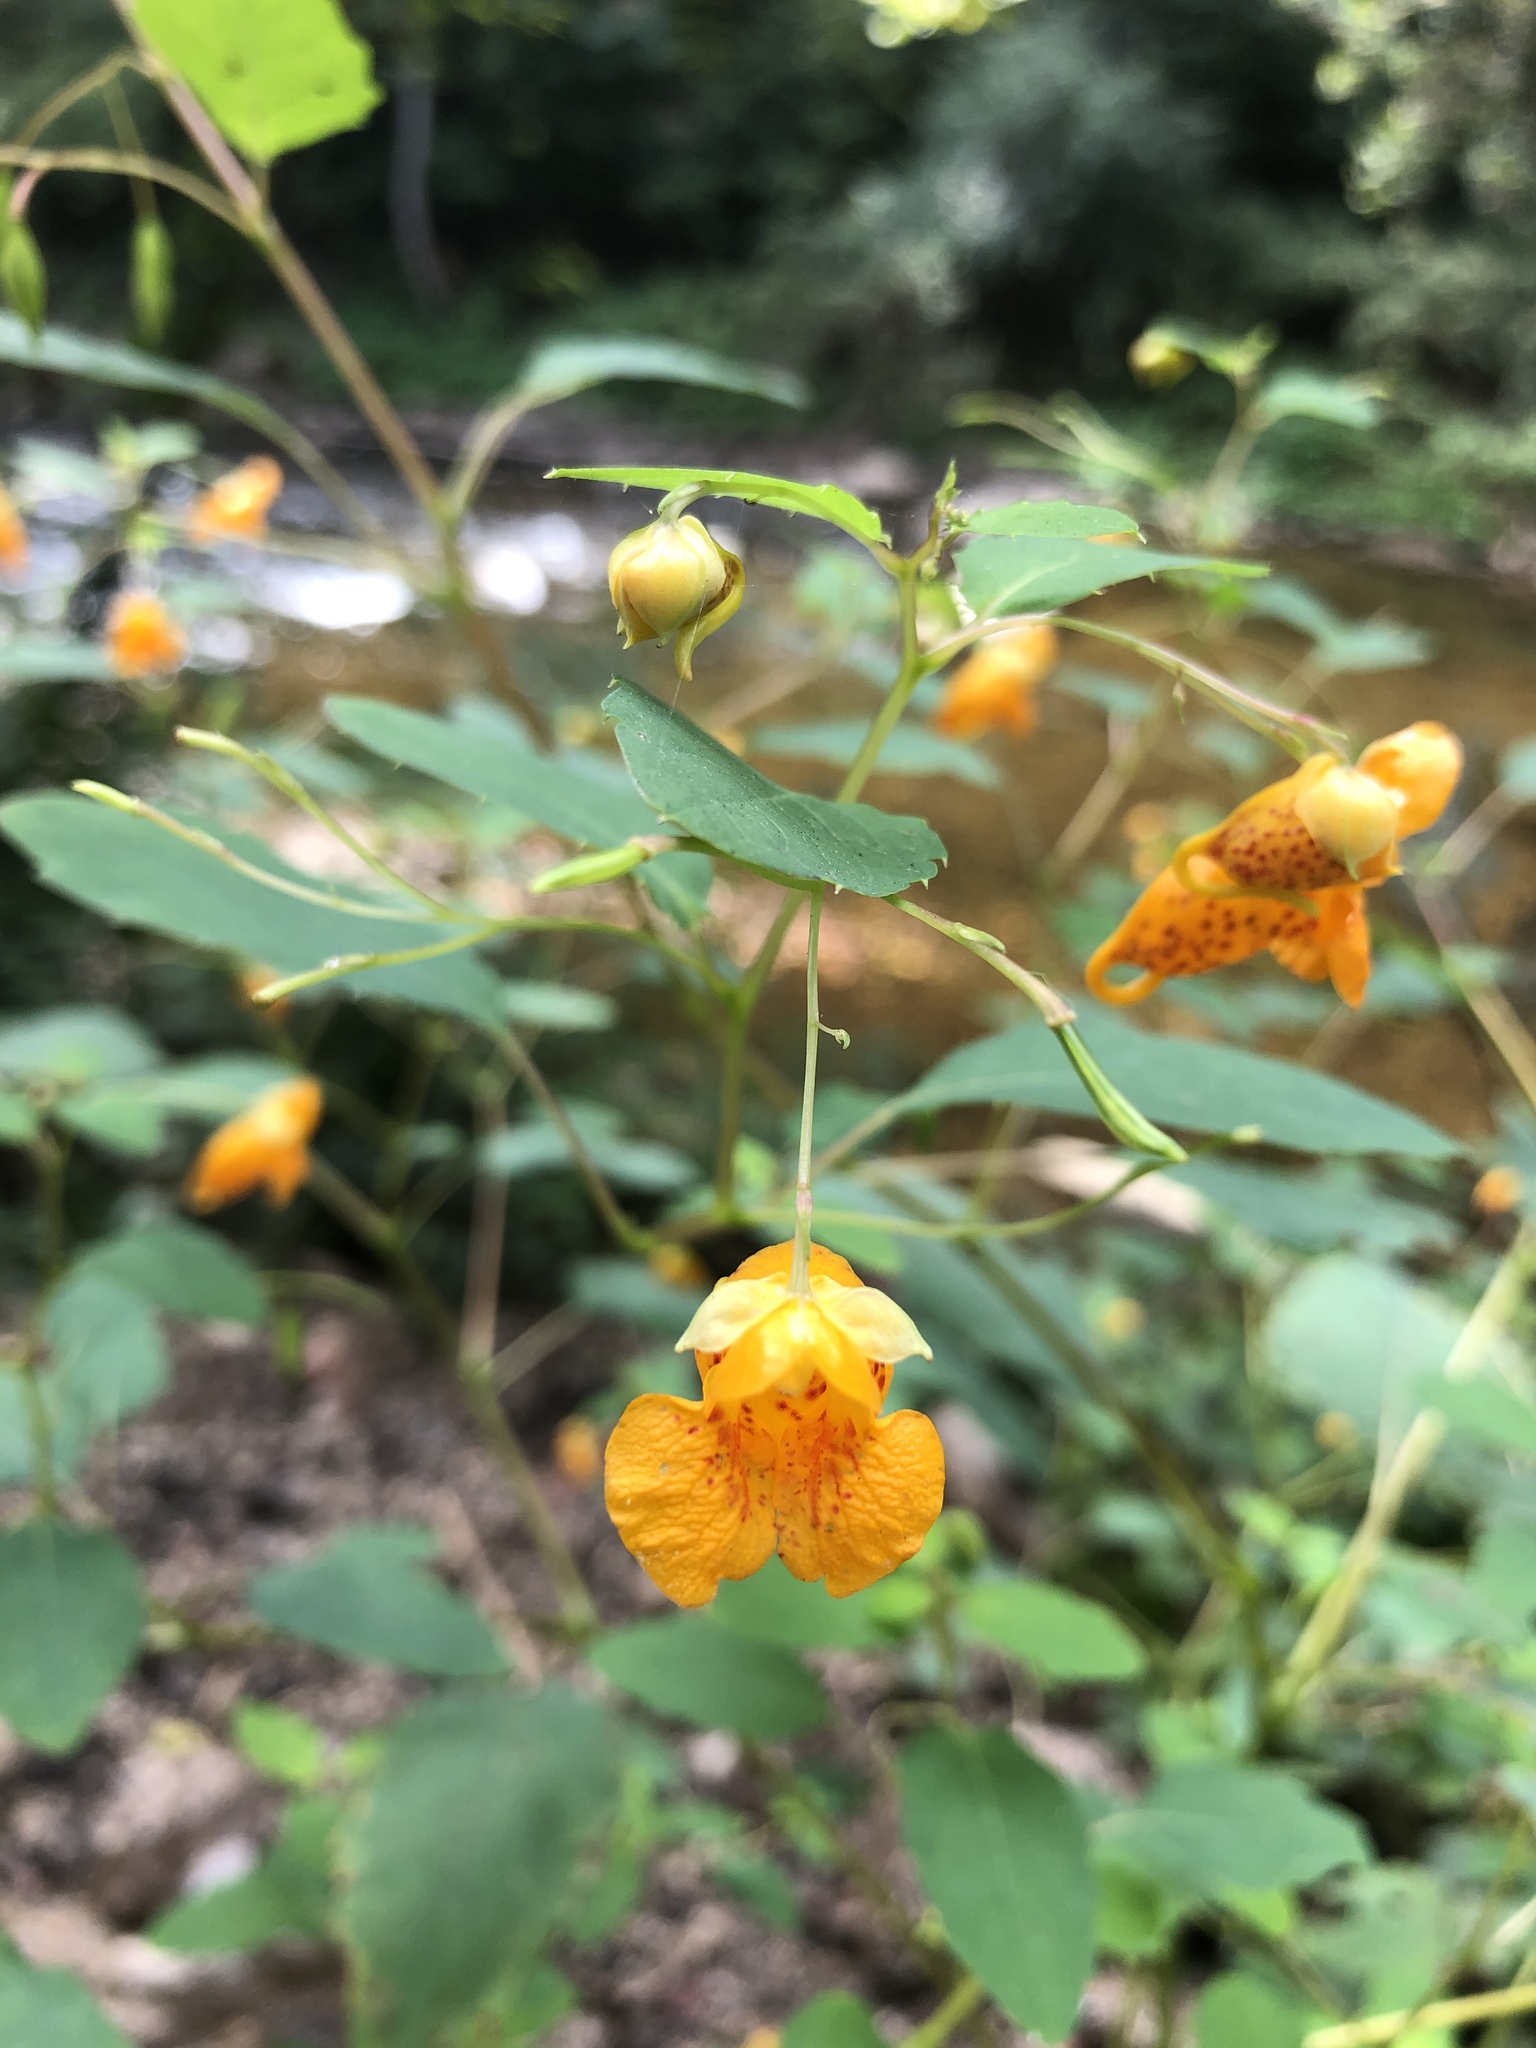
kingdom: Plantae
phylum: Tracheophyta
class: Magnoliopsida
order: Ericales
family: Balsaminaceae
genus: Impatiens
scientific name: Impatiens capensis
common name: Orange balsam
